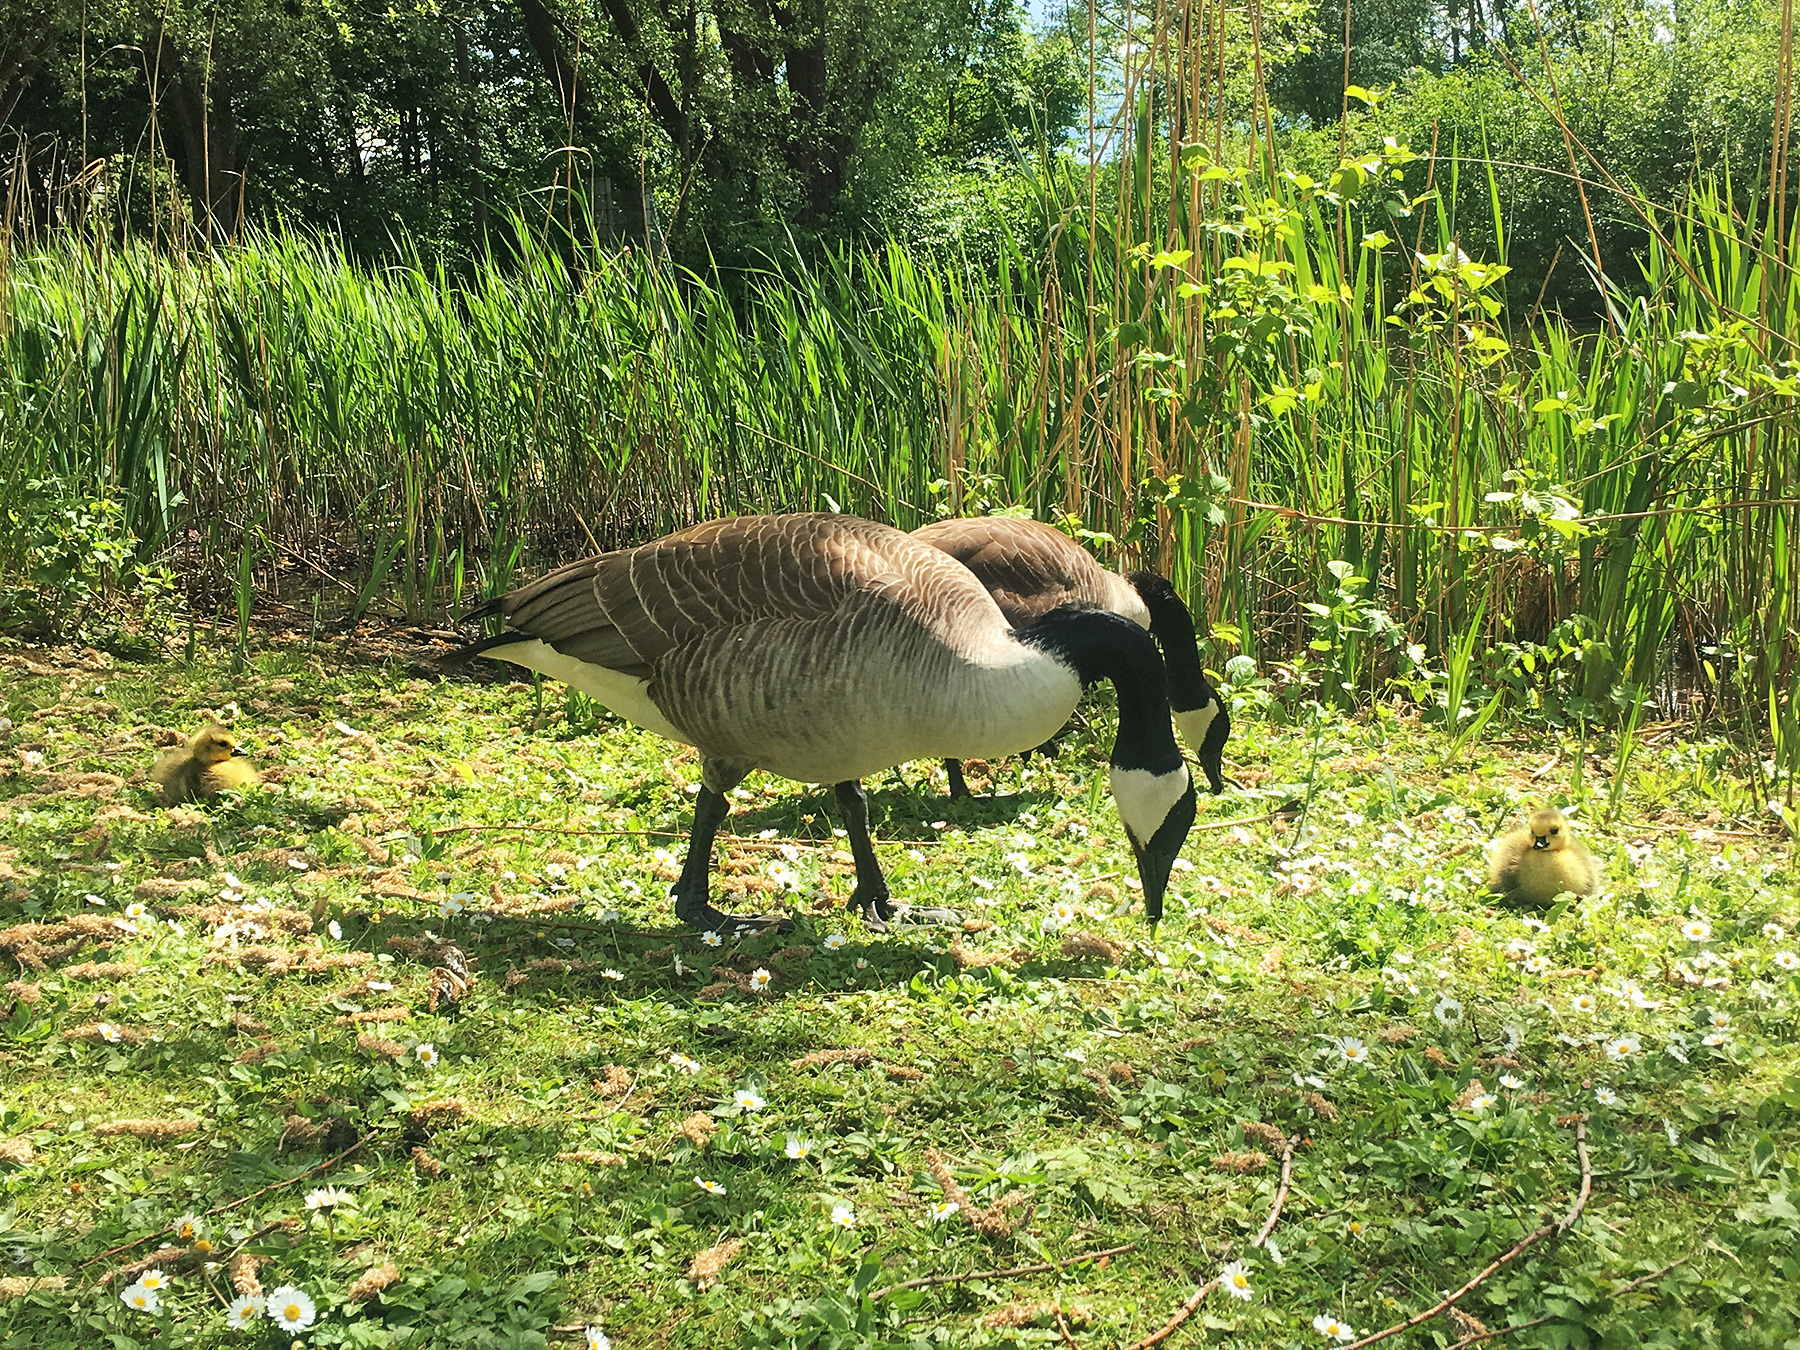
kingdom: Animalia
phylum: Chordata
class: Aves
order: Anseriformes
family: Anatidae
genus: Branta
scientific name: Branta canadensis
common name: Canada goose
